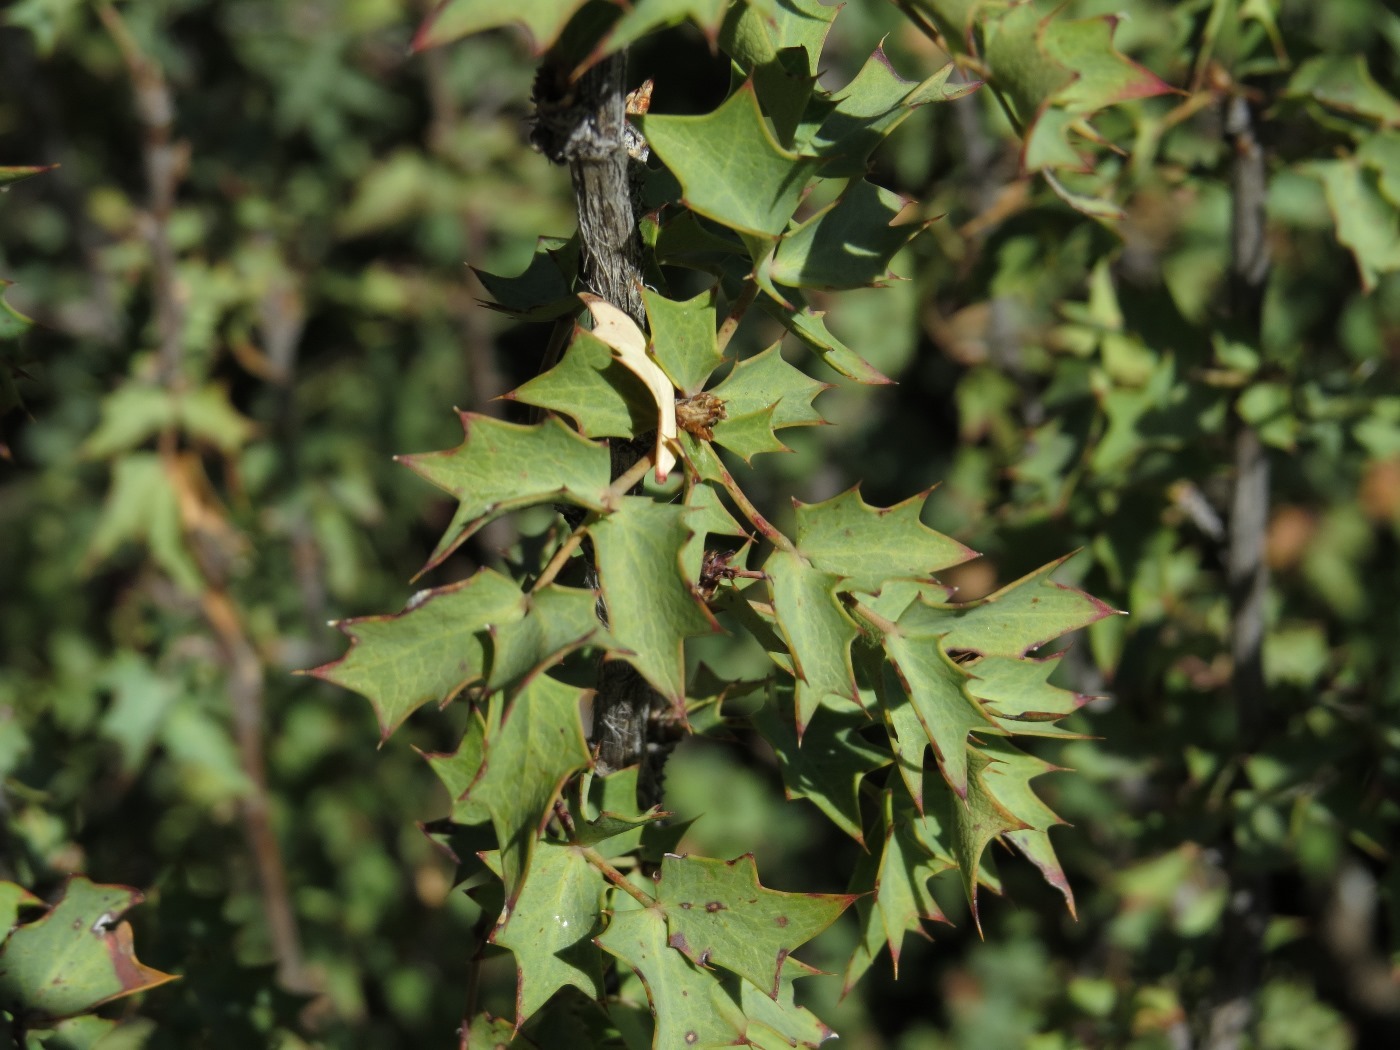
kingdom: Plantae
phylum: Tracheophyta
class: Magnoliopsida
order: Ranunculales
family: Berberidaceae
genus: Alloberberis
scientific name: Alloberberis haematocarpa
